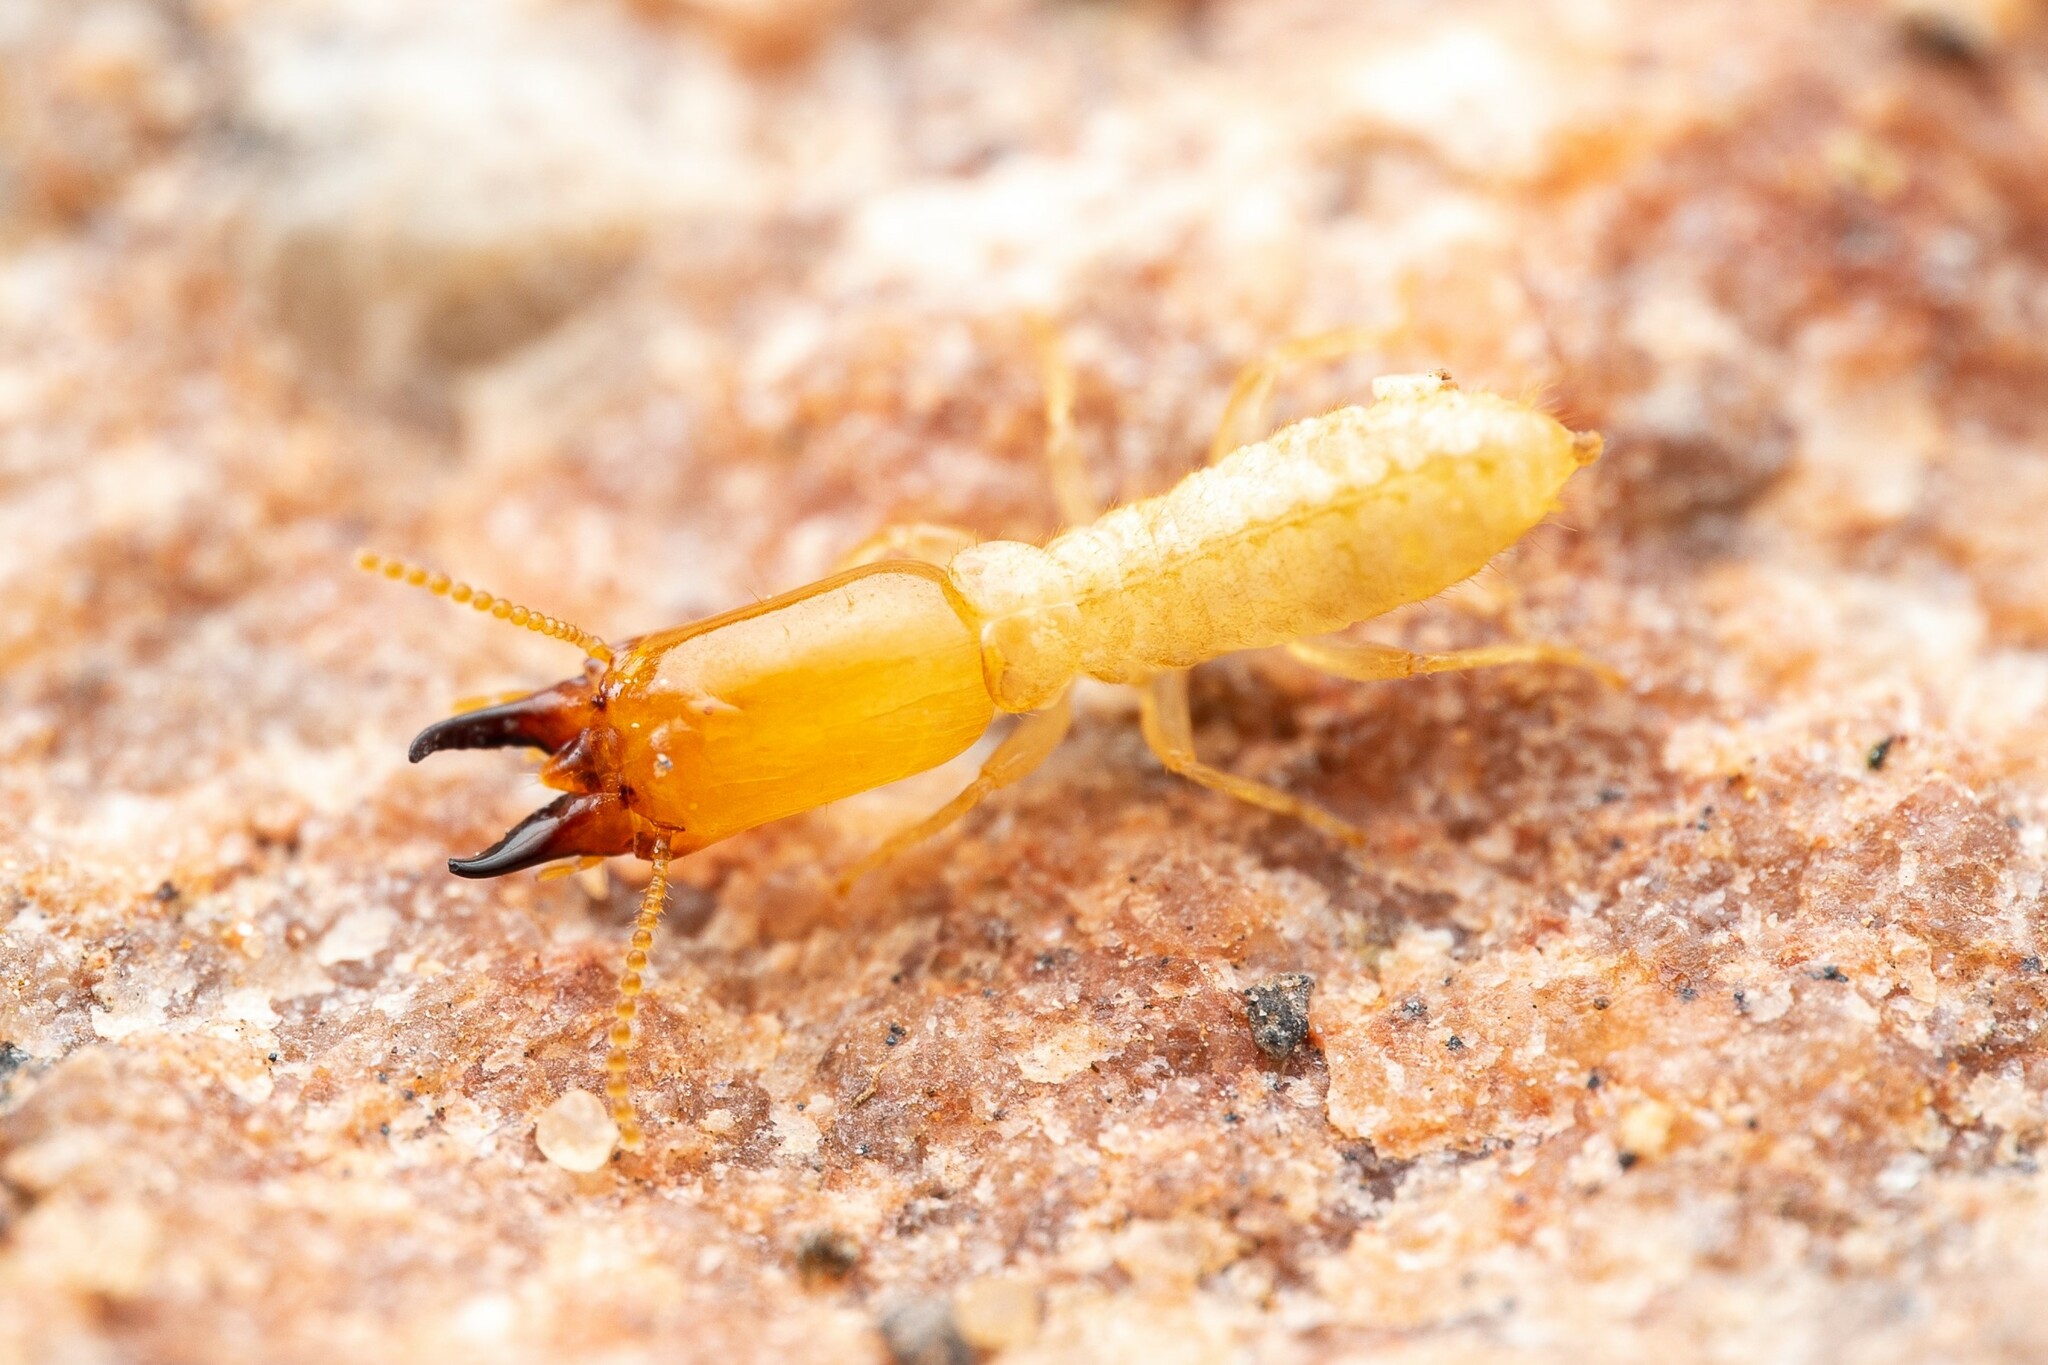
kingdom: Animalia
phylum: Arthropoda
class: Insecta
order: Blattodea
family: Rhinotermitidae
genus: Reticulitermes
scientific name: Reticulitermes
